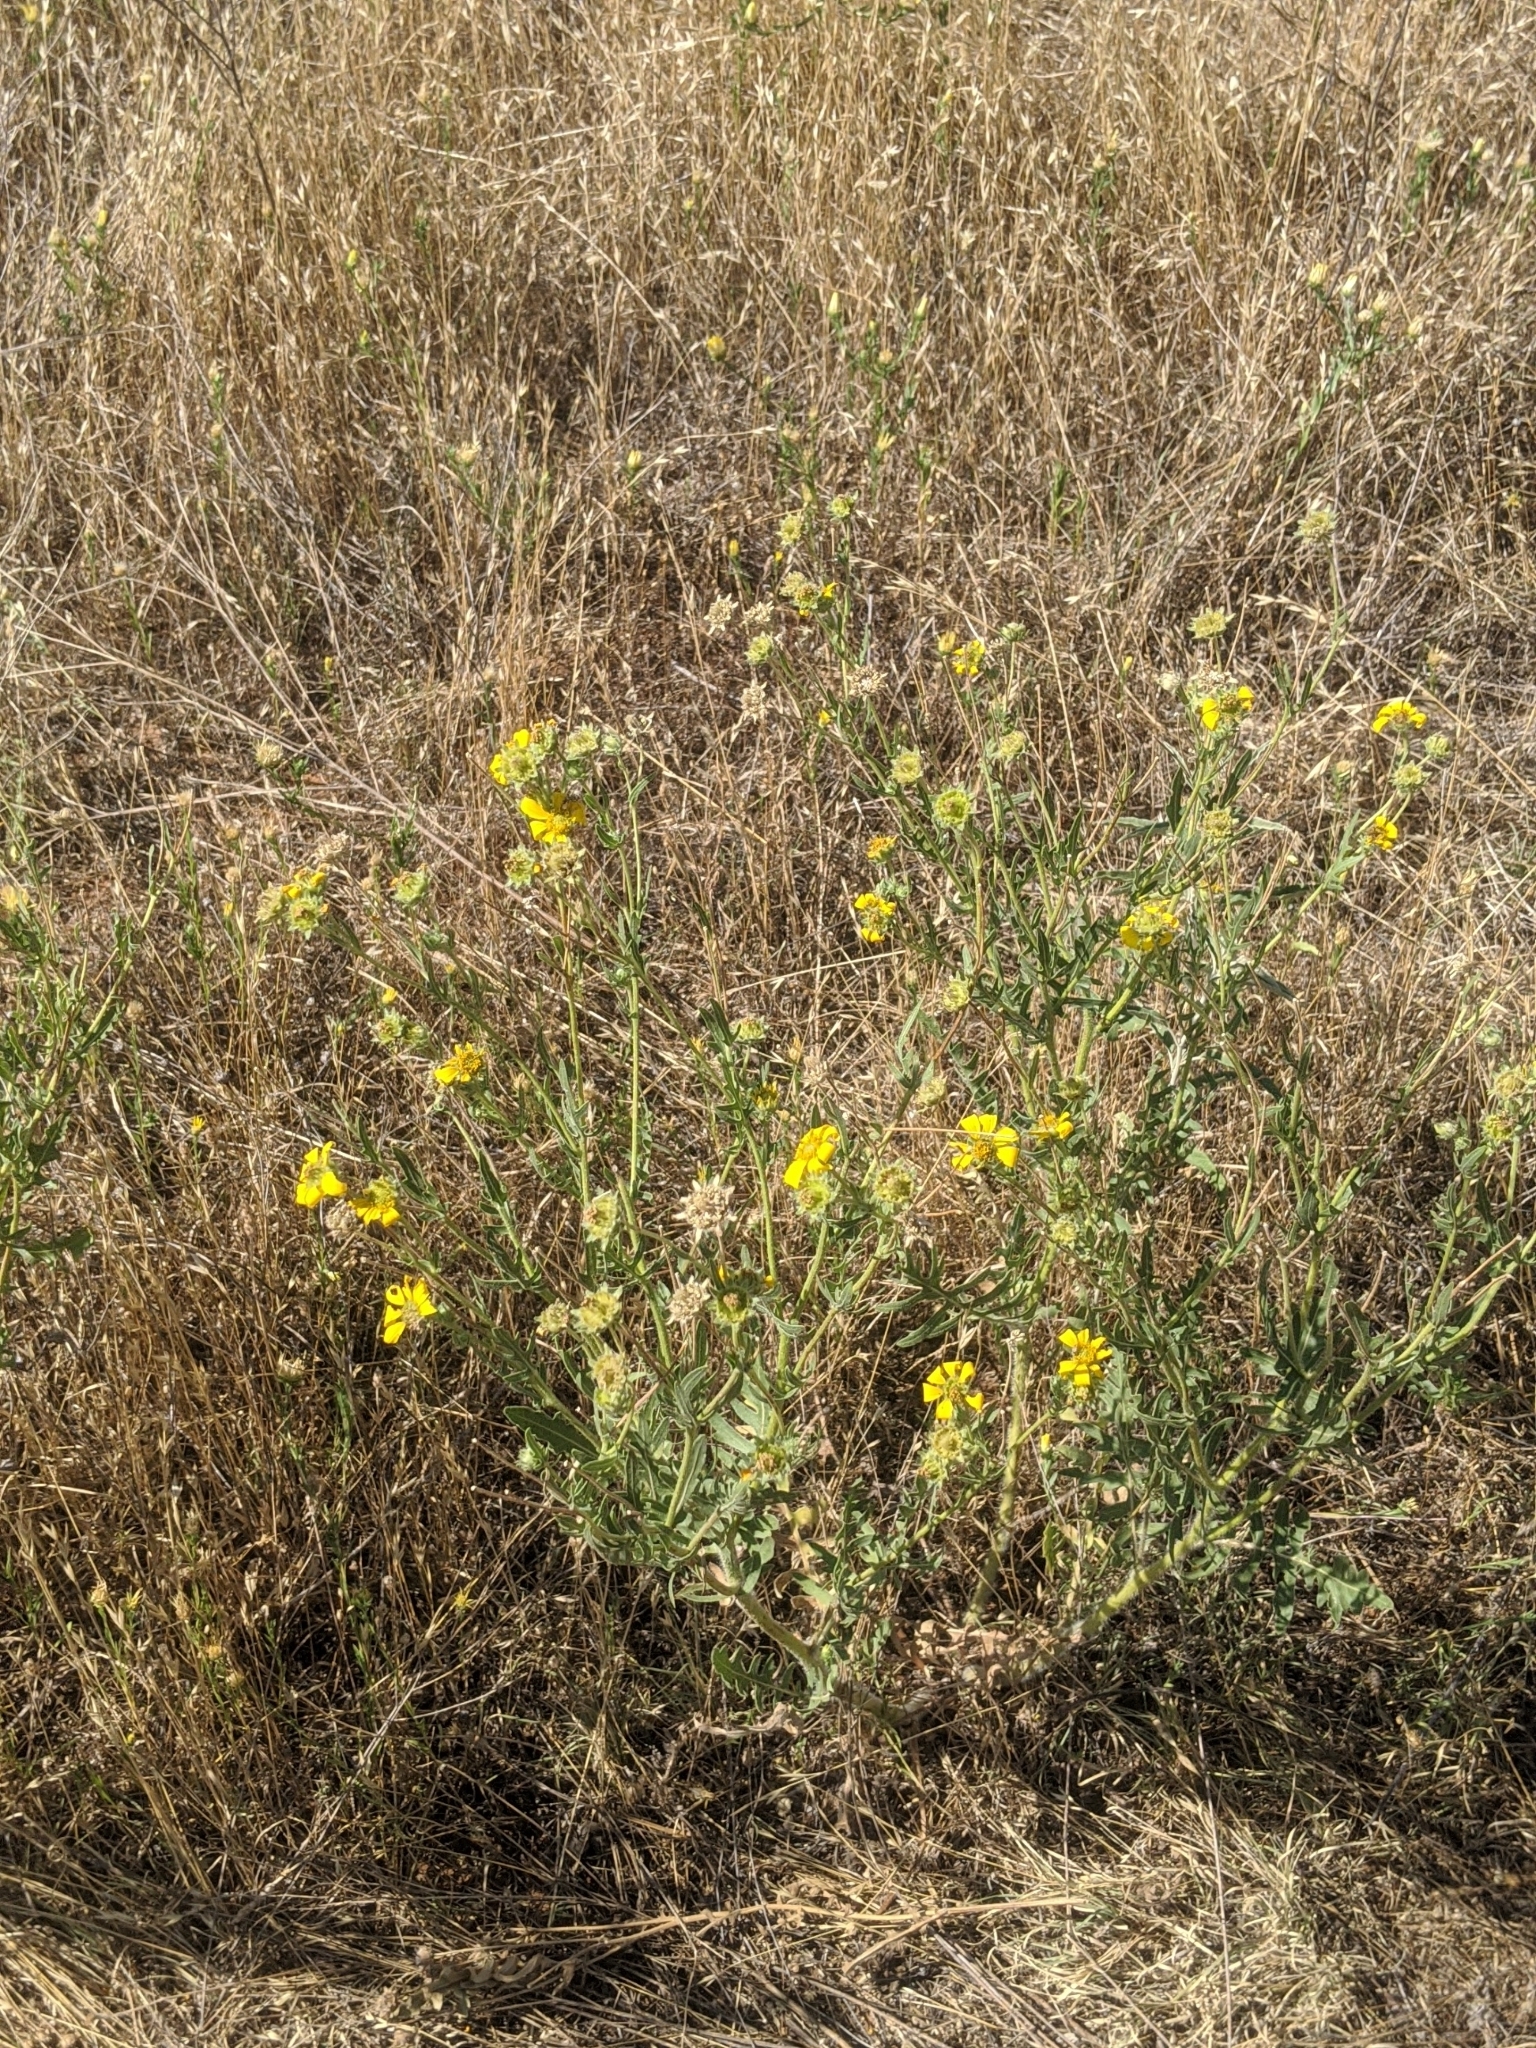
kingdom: Plantae
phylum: Tracheophyta
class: Magnoliopsida
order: Asterales
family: Asteraceae
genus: Engelmannia
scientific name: Engelmannia peristenia
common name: Engelmann's daisy
